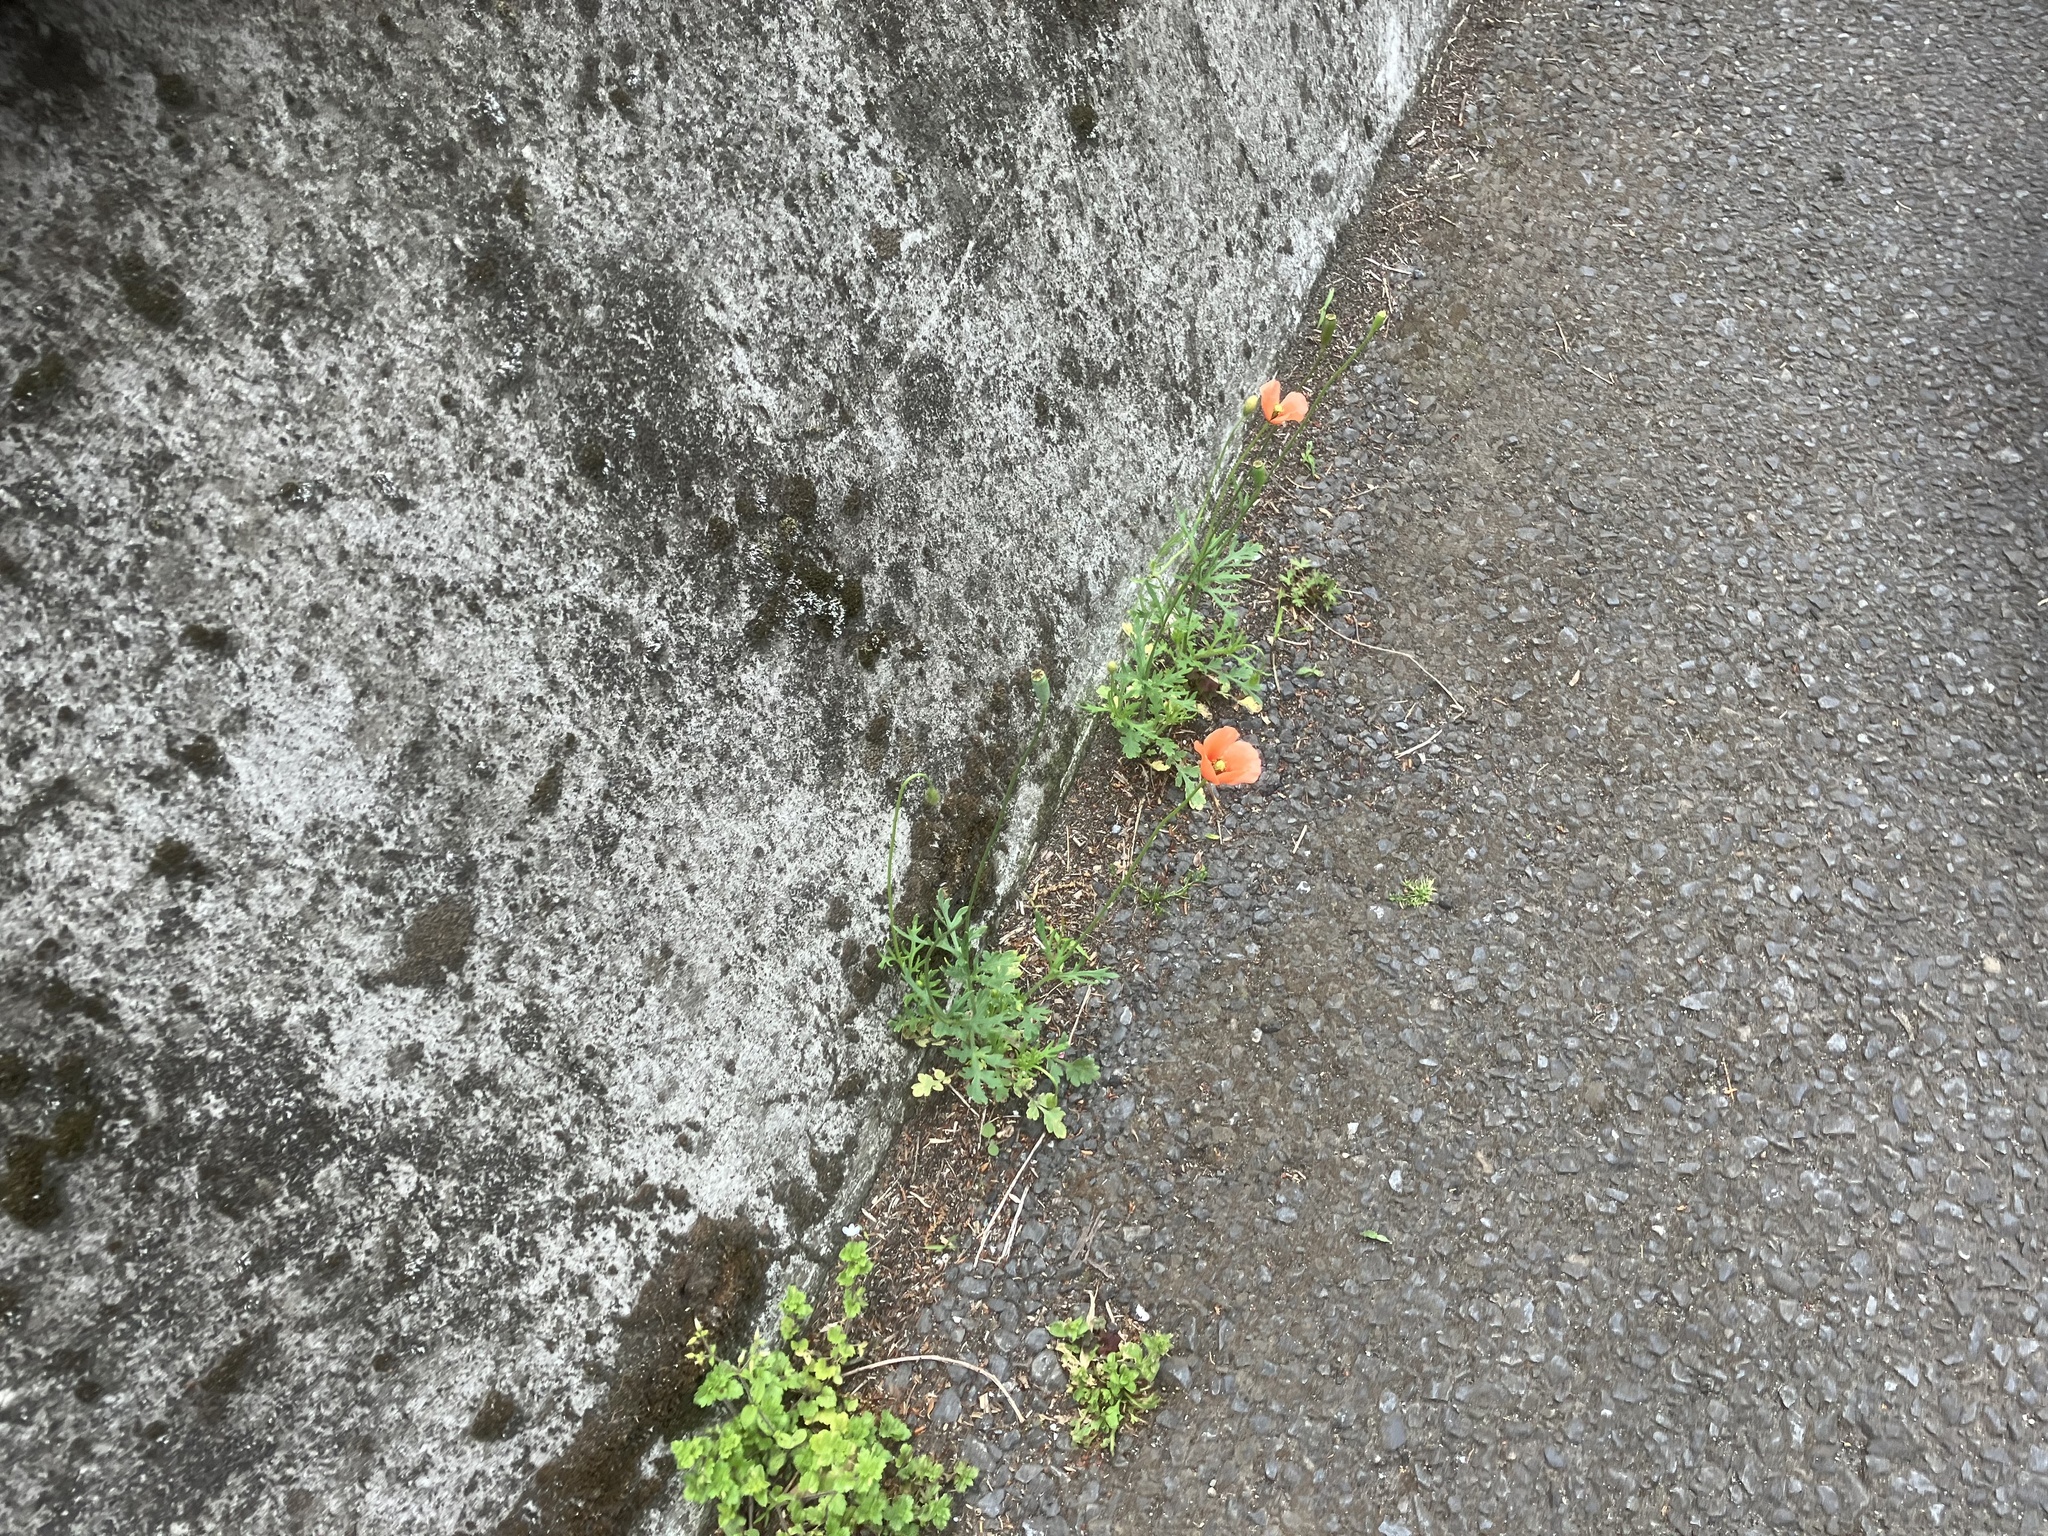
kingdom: Plantae
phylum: Tracheophyta
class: Magnoliopsida
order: Ranunculales
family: Papaveraceae
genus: Papaver
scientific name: Papaver dubium
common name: Long-headed poppy
